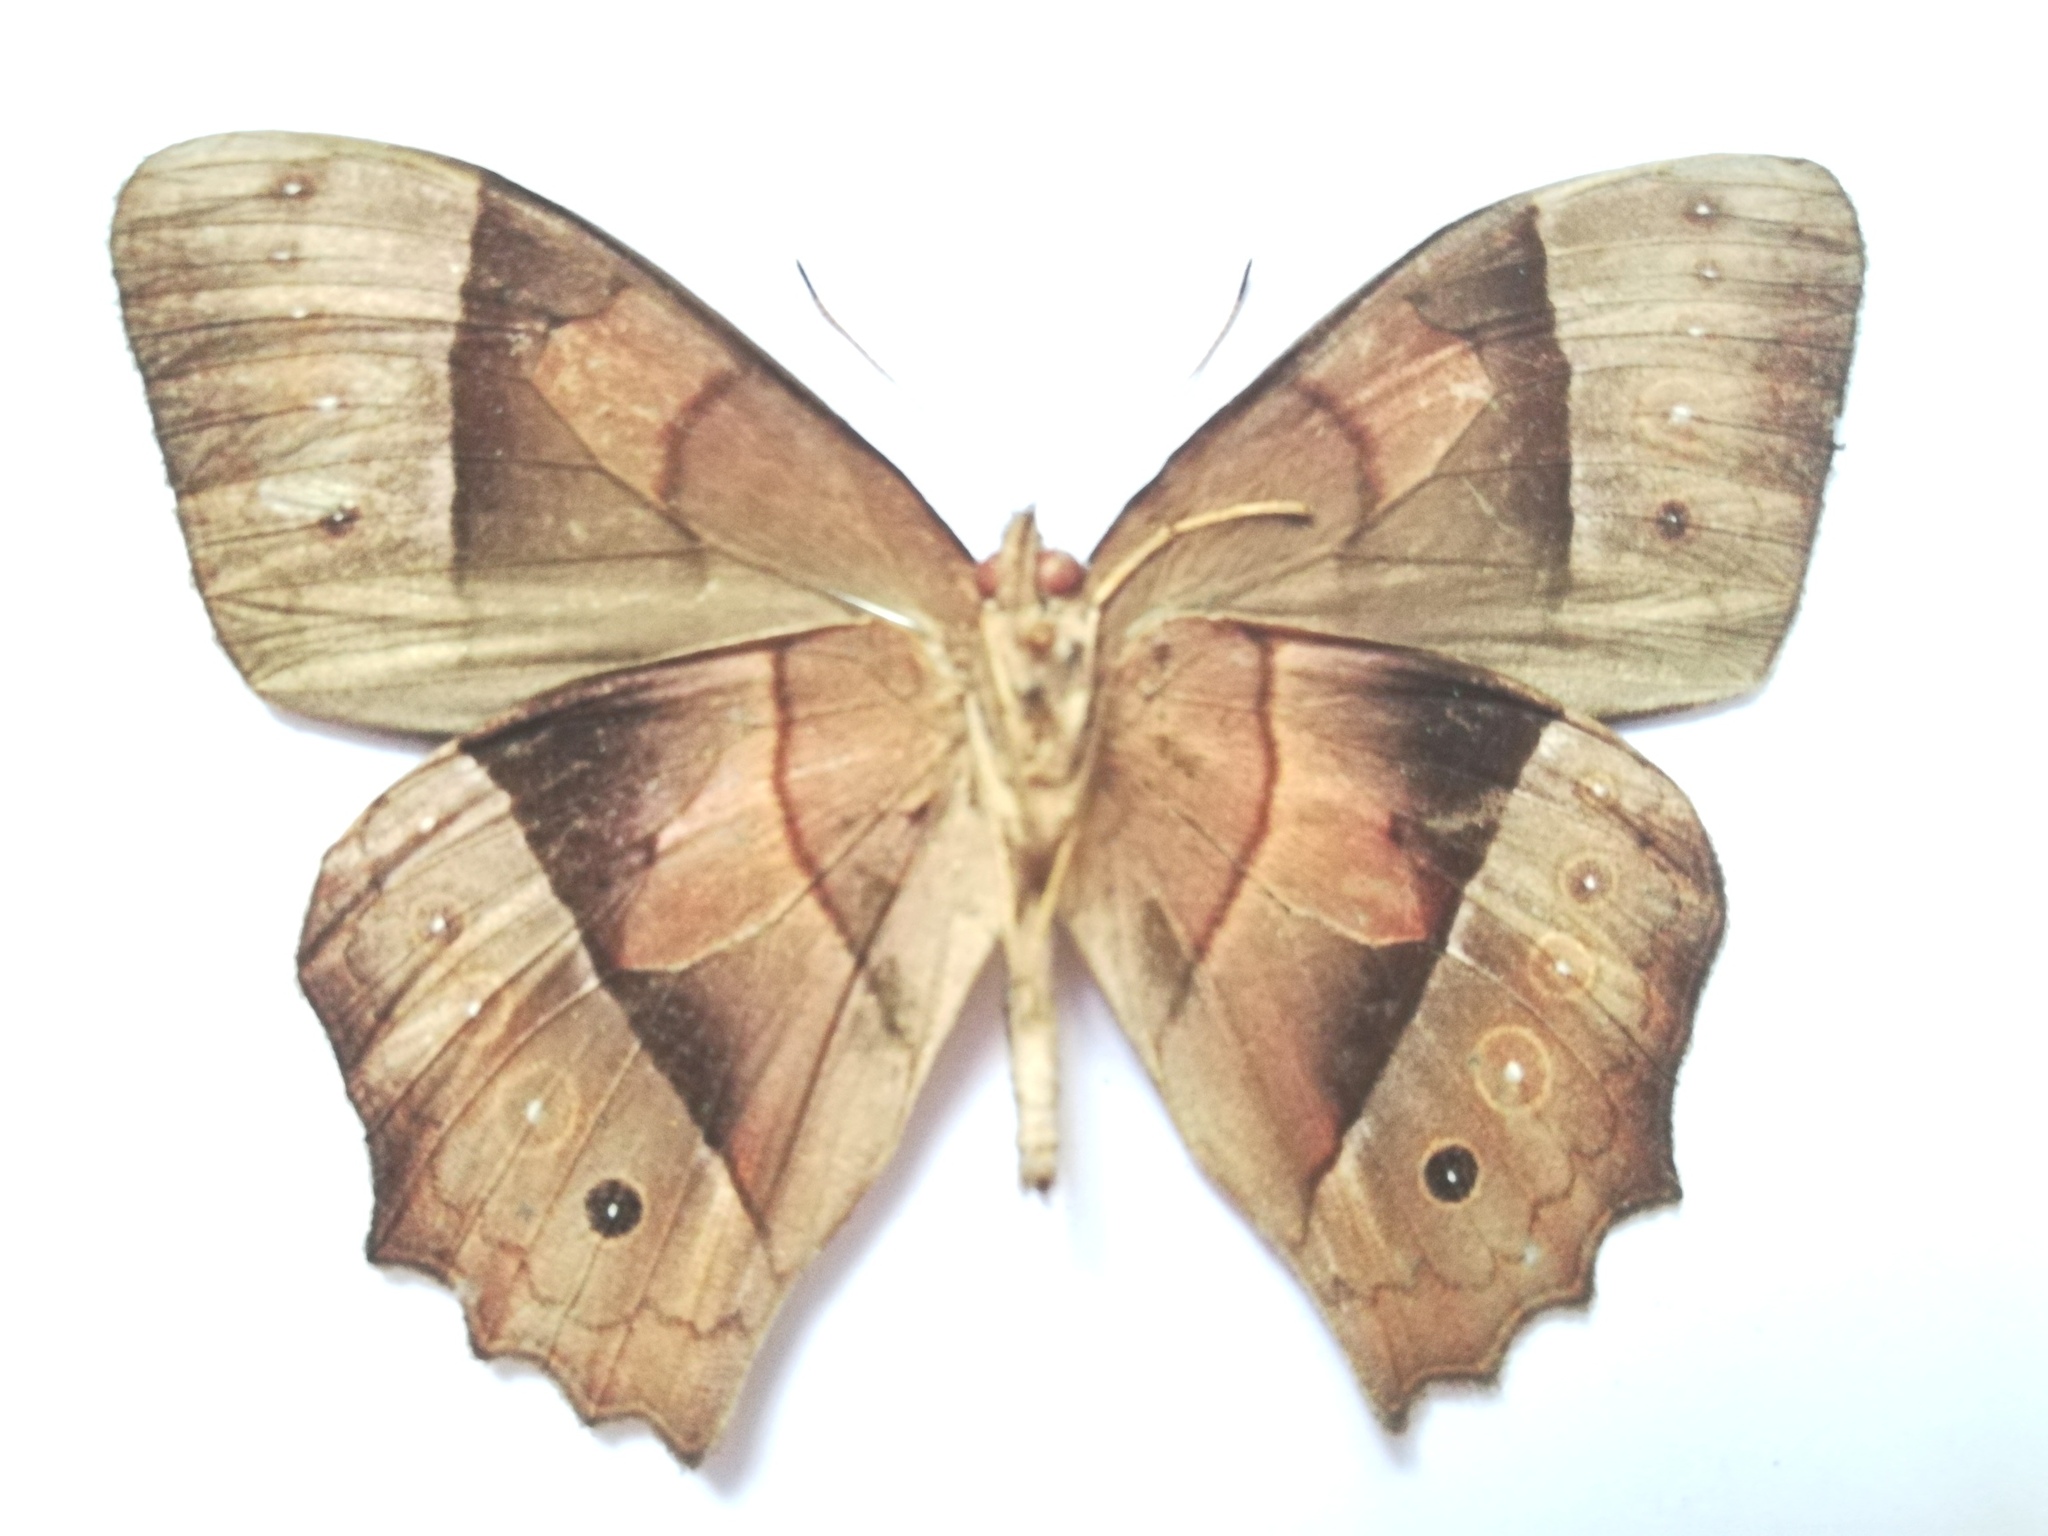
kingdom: Animalia
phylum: Arthropoda
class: Insecta
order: Lepidoptera
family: Nymphalidae
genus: Taygetis
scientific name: Taygetis salvini
